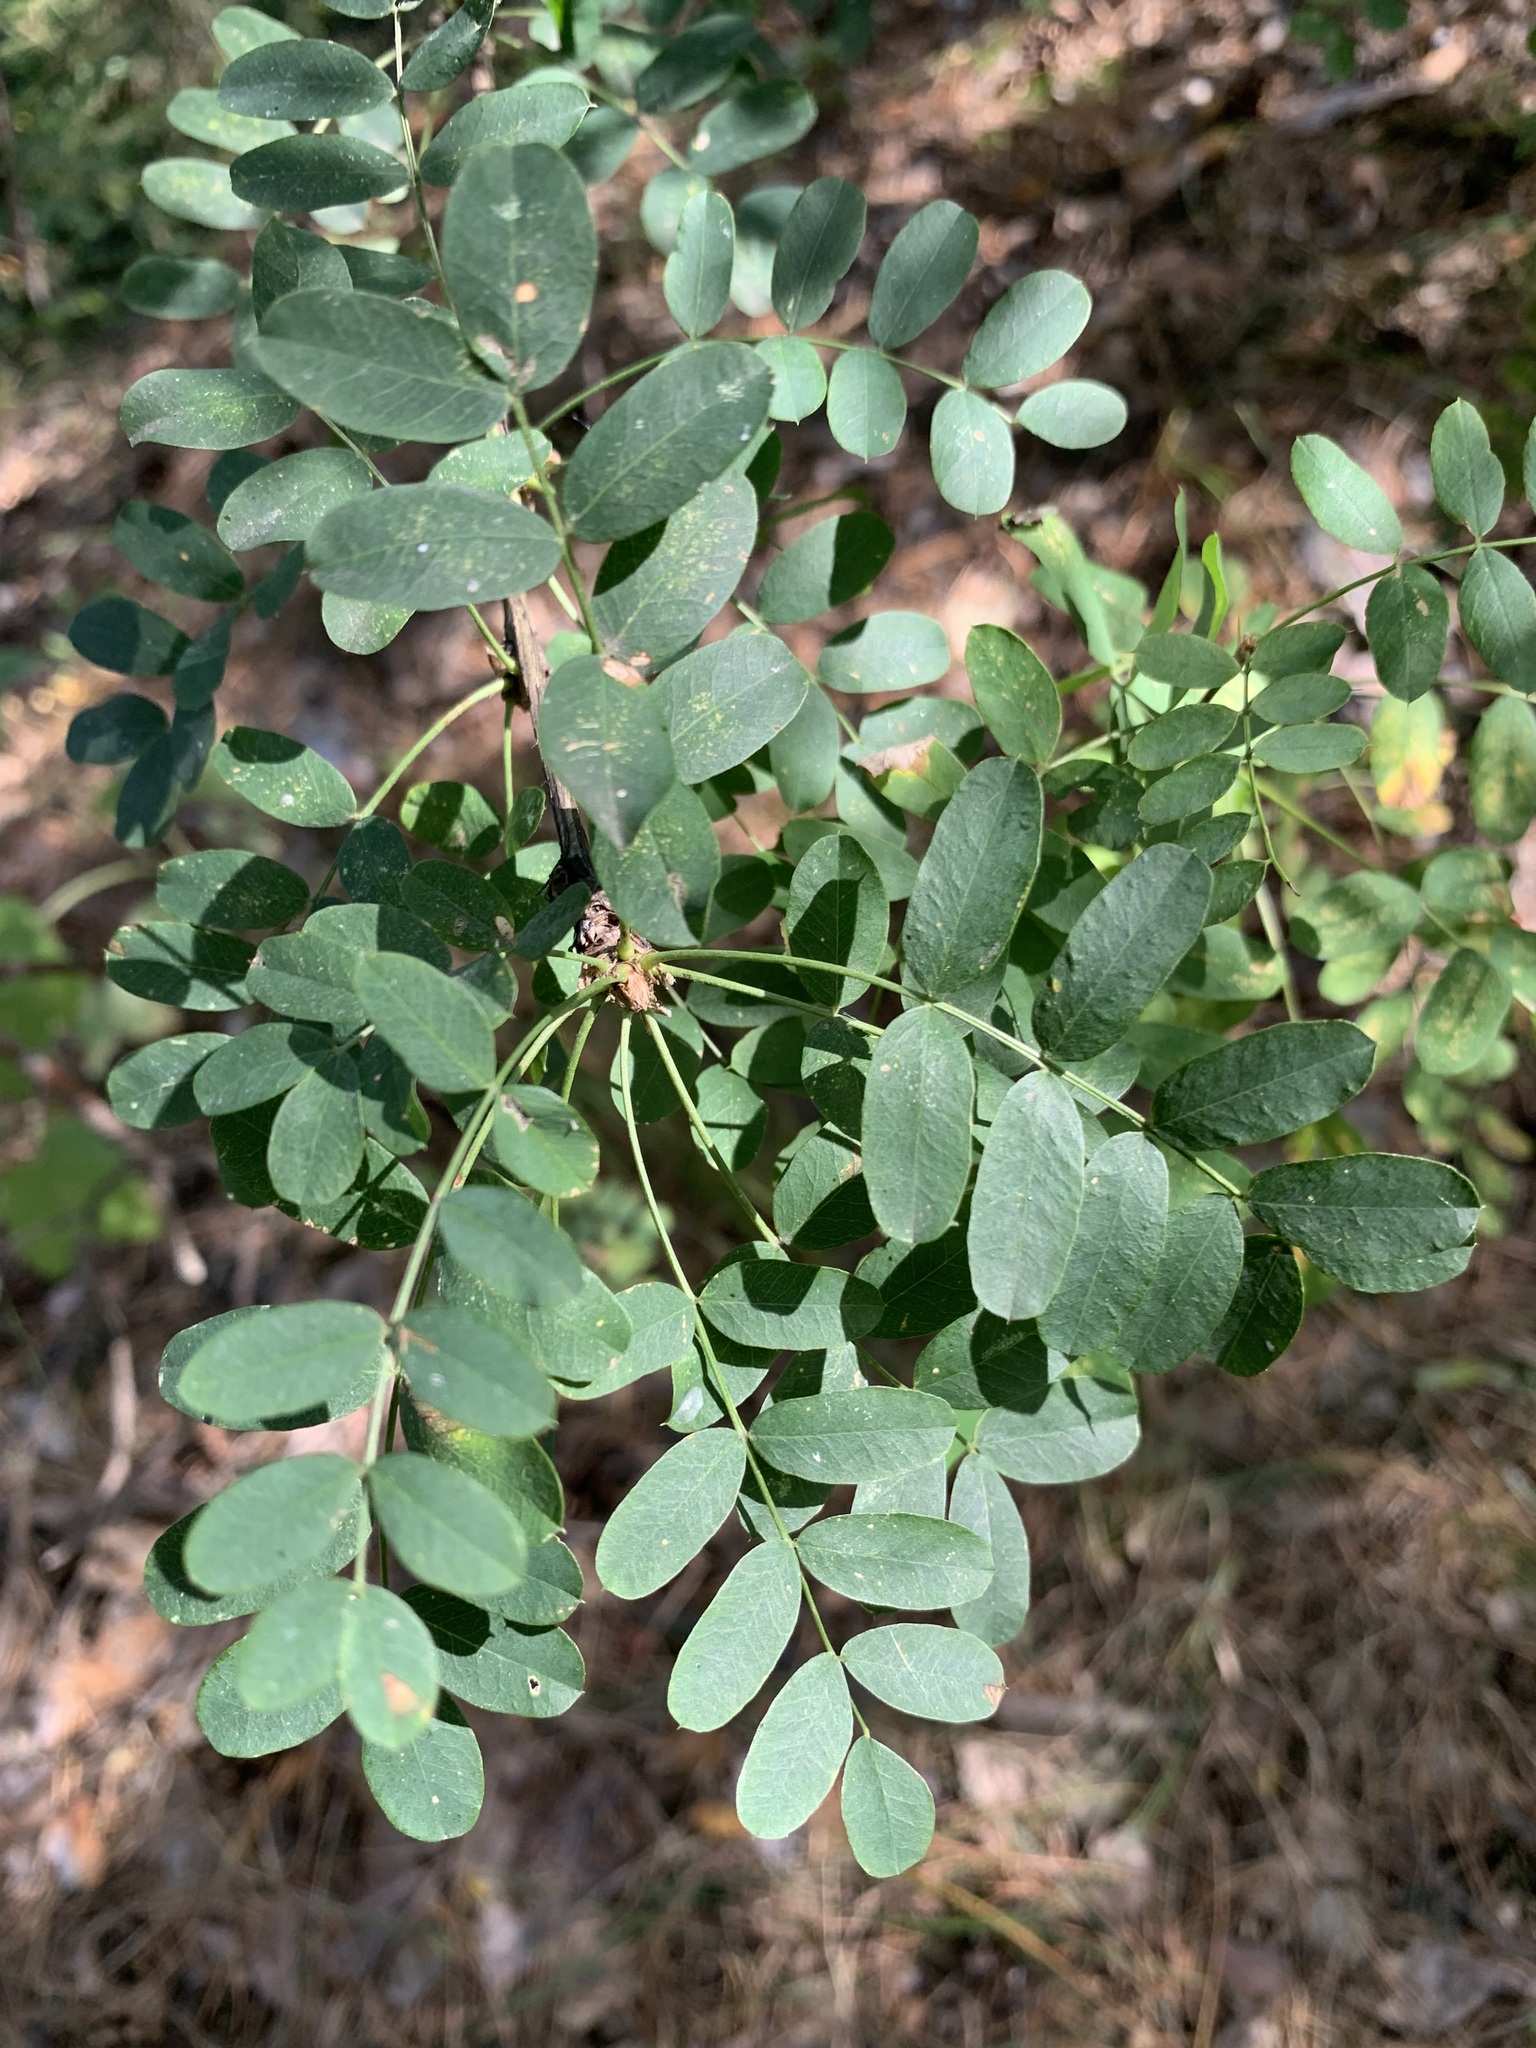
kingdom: Plantae
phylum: Tracheophyta
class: Magnoliopsida
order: Fabales
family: Fabaceae
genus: Caragana
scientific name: Caragana arborescens
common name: Siberian peashrub
